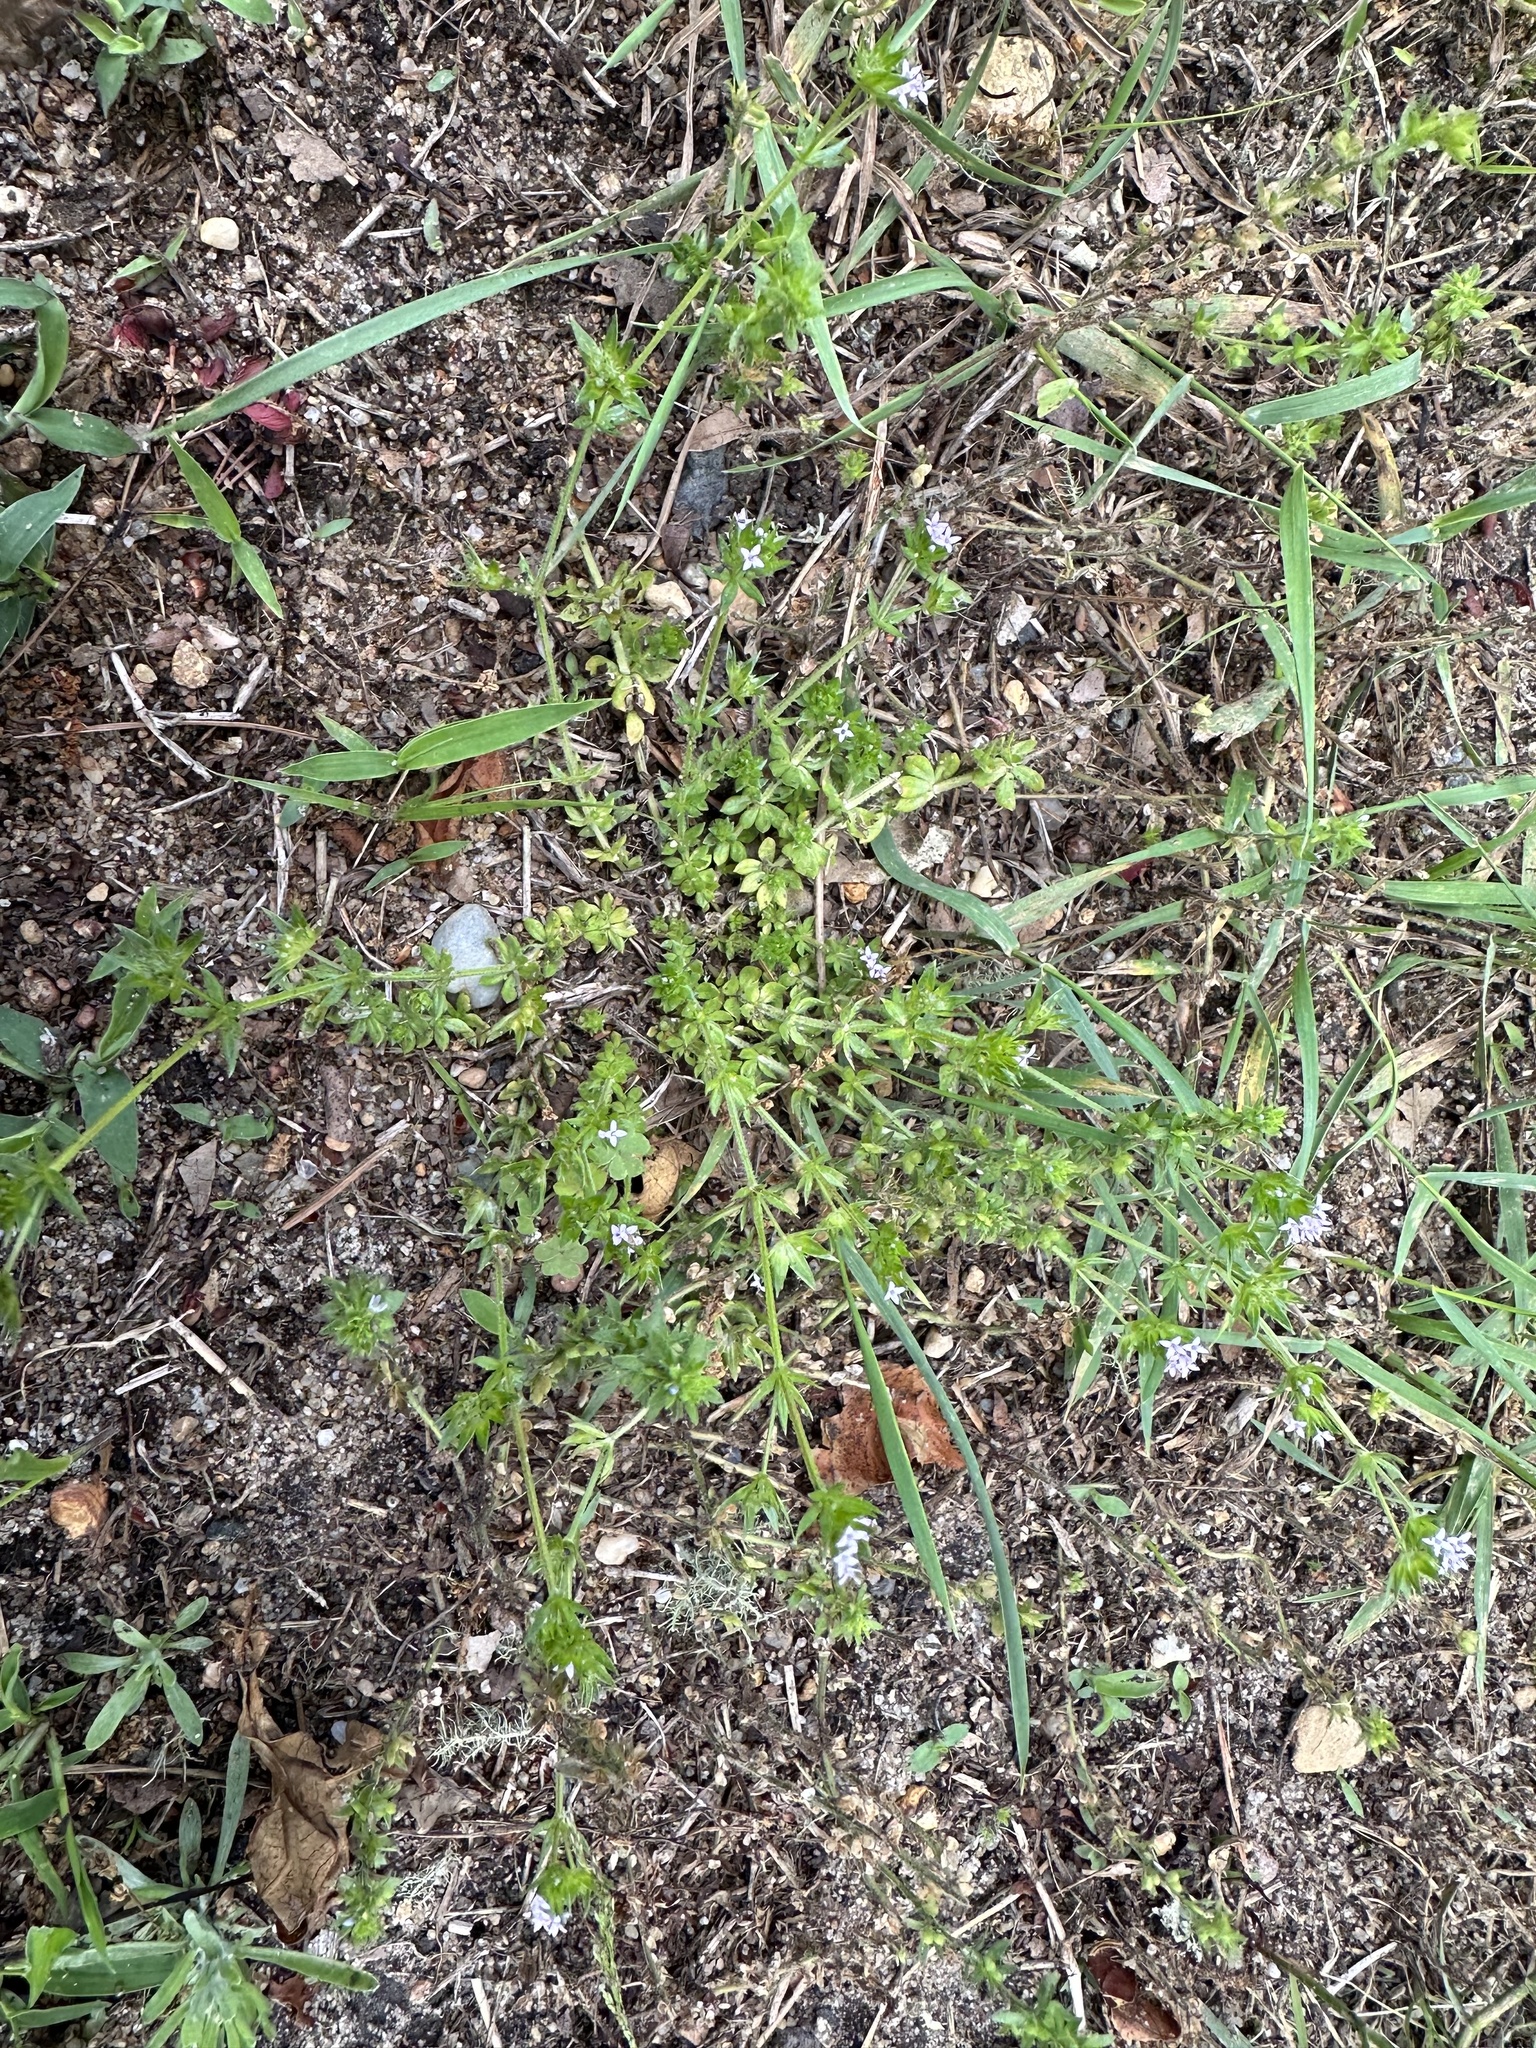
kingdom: Plantae
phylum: Tracheophyta
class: Magnoliopsida
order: Gentianales
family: Rubiaceae
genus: Sherardia
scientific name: Sherardia arvensis
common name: Field madder
